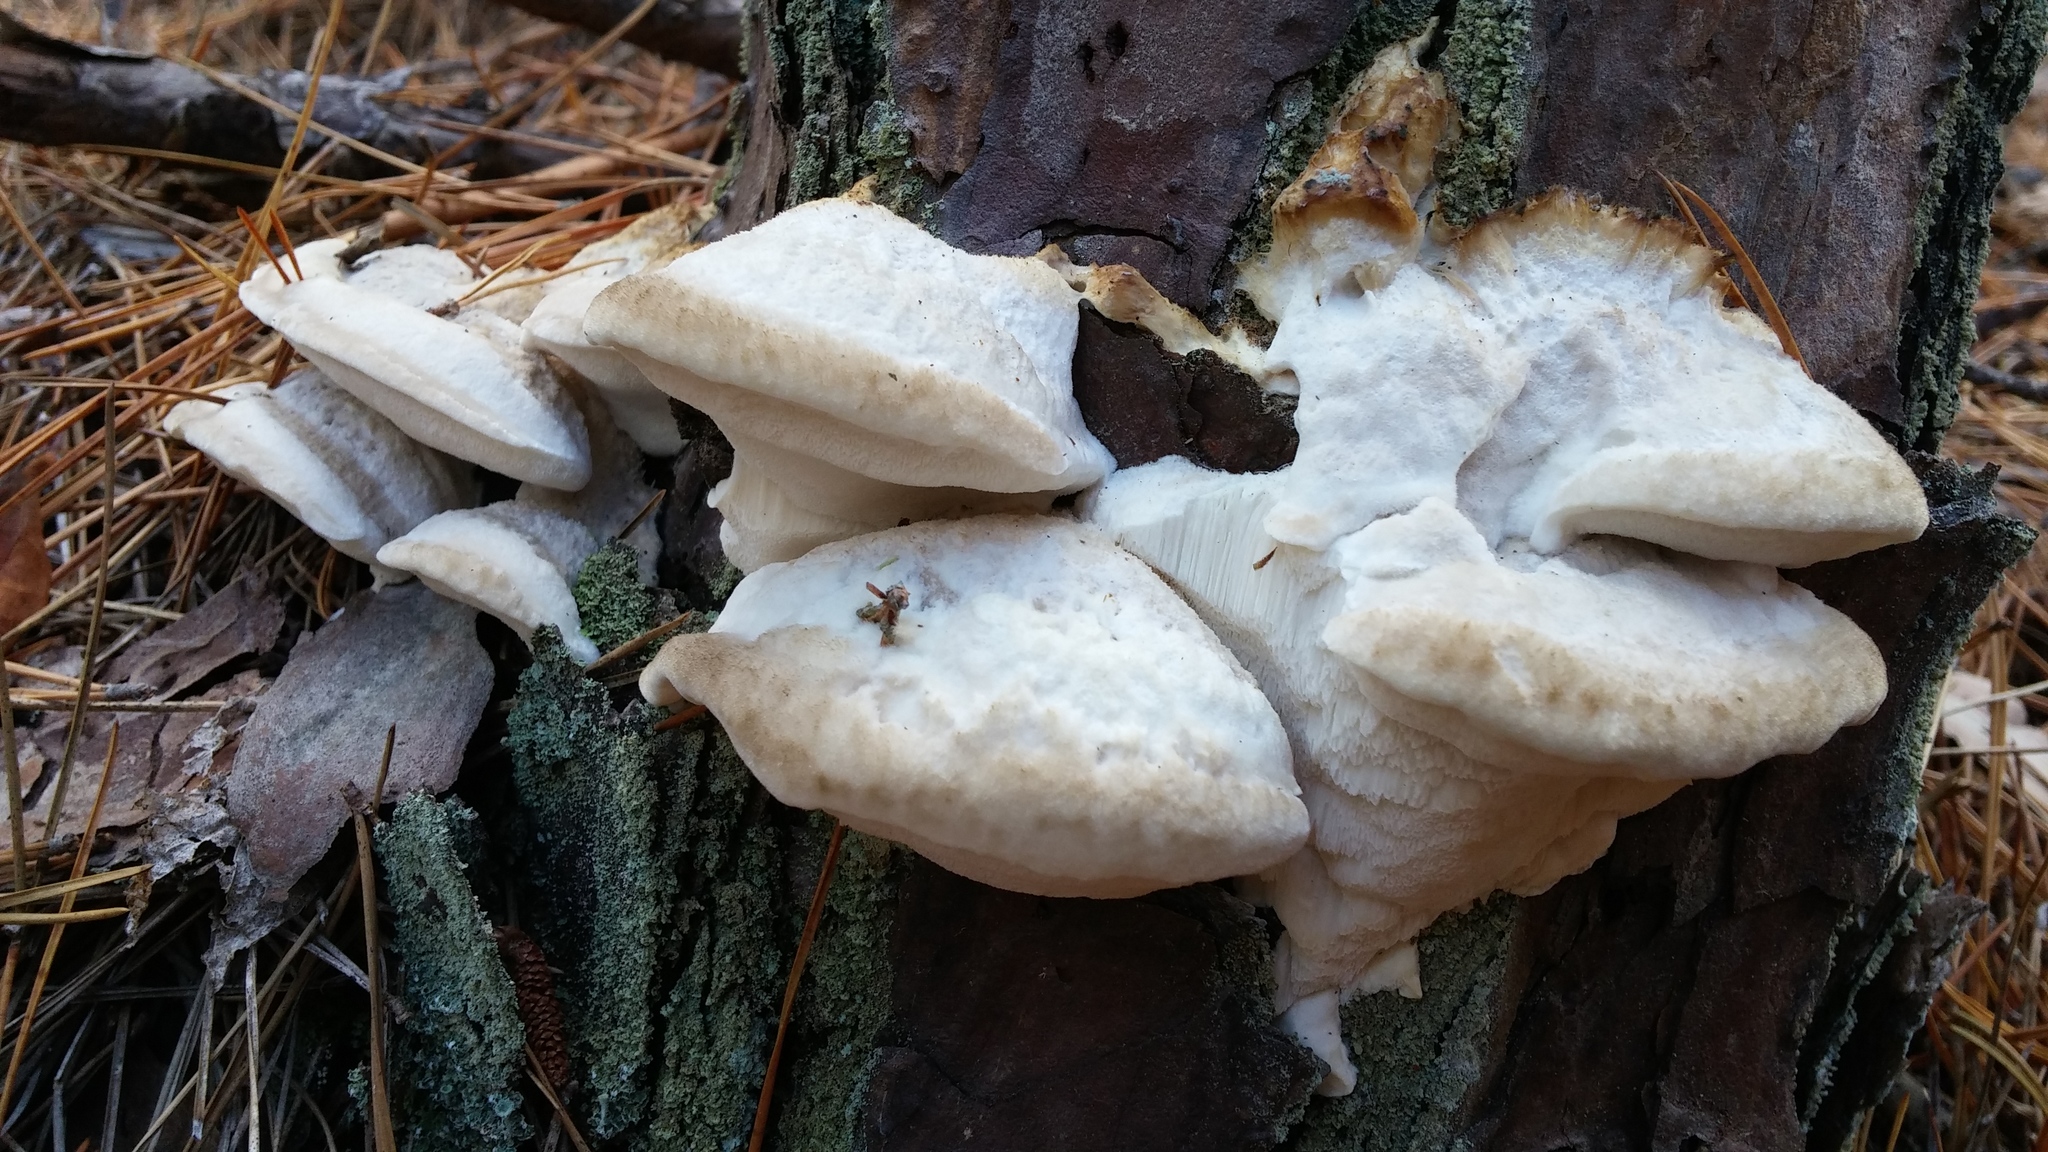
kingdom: Fungi
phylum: Basidiomycota
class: Agaricomycetes
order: Polyporales
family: Dacryobolaceae
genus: Postia
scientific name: Postia tephroleuca
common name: Greyling bracket
